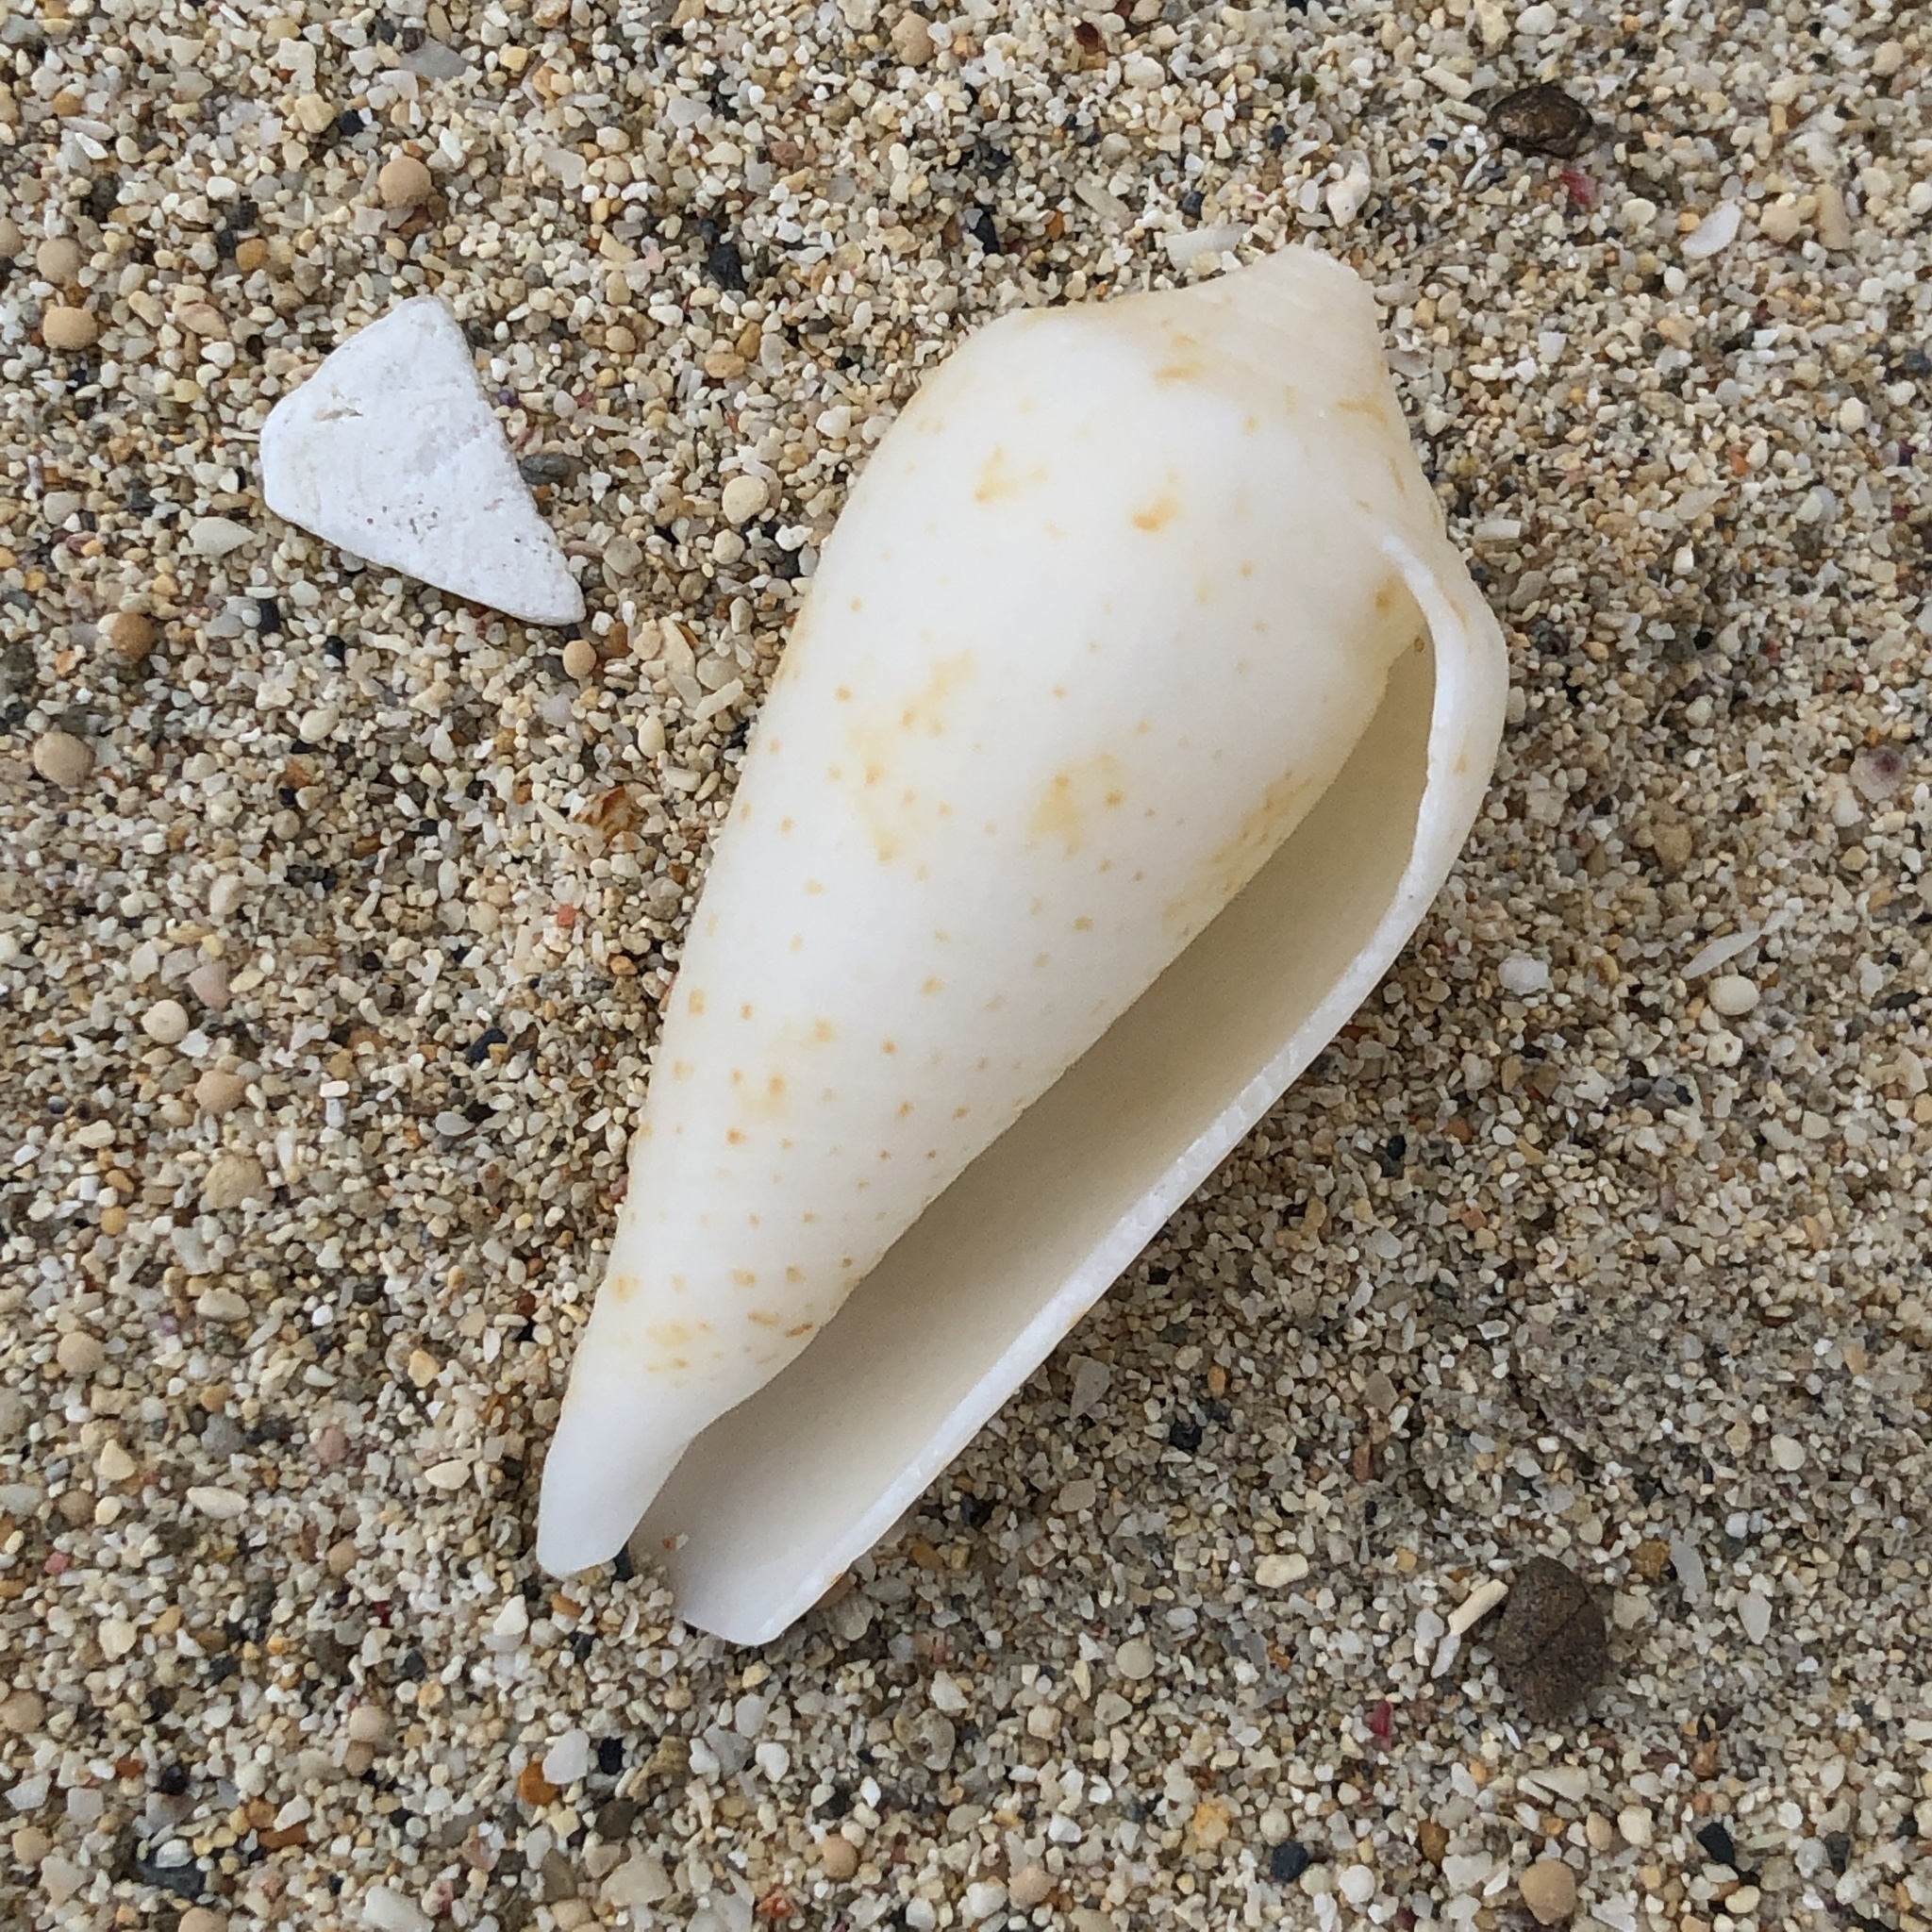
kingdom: Animalia
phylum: Mollusca
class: Gastropoda
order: Neogastropoda
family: Conidae
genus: Conus
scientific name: Conus cinereus
